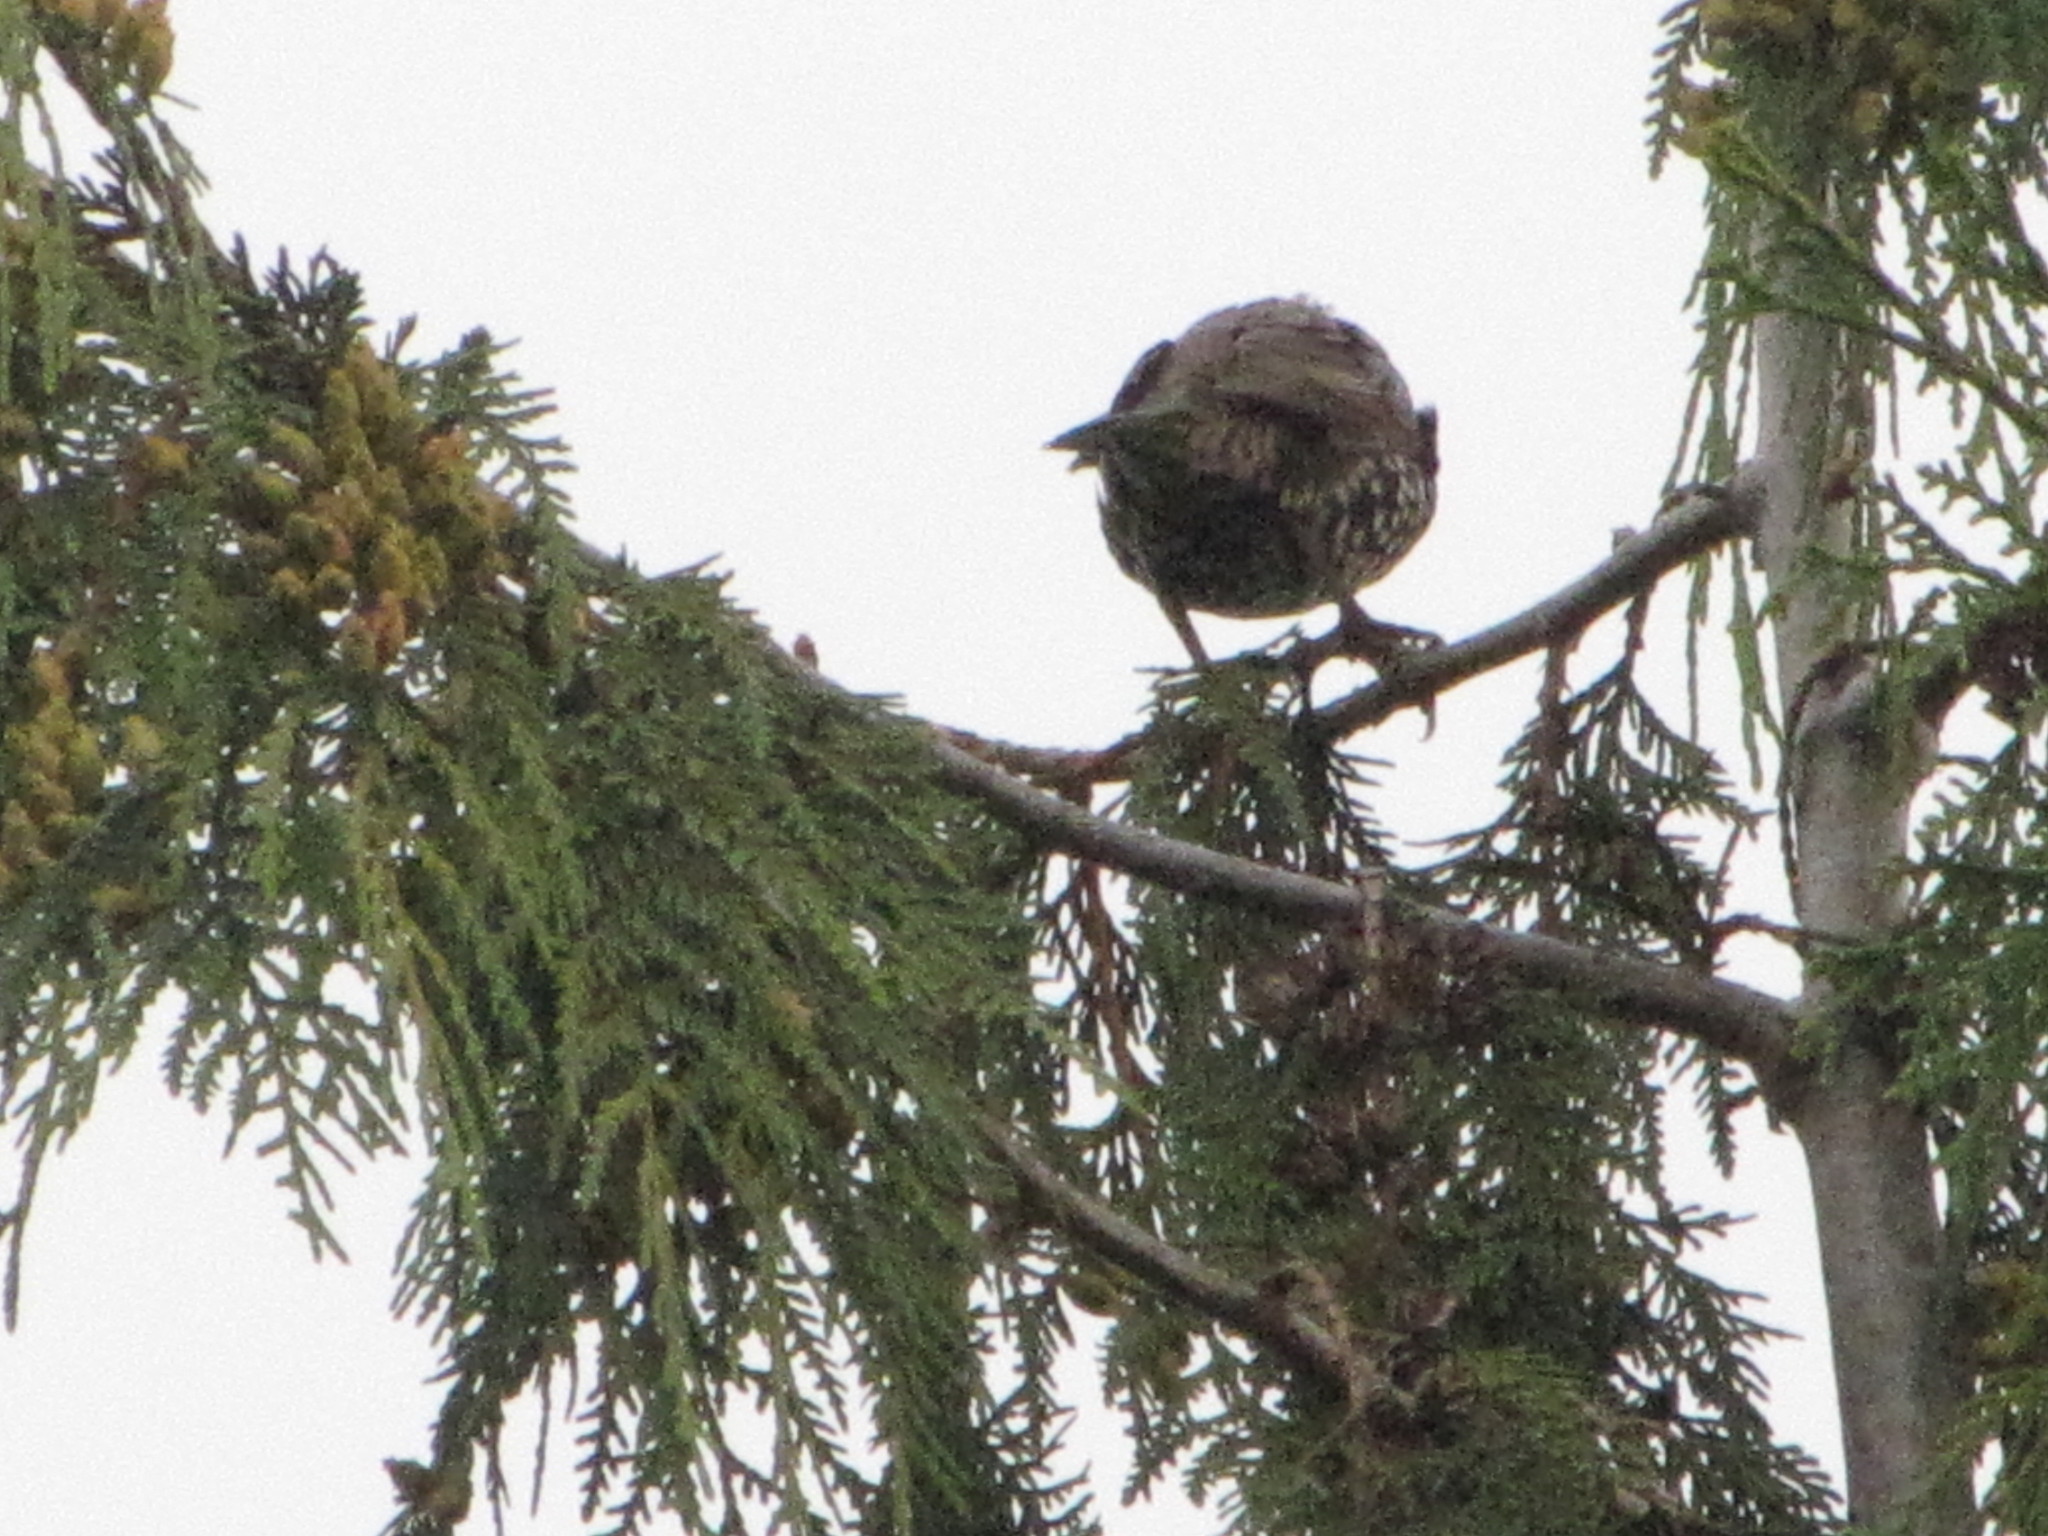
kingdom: Animalia
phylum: Chordata
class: Aves
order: Passeriformes
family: Sturnidae
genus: Sturnus
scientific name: Sturnus vulgaris
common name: Common starling
